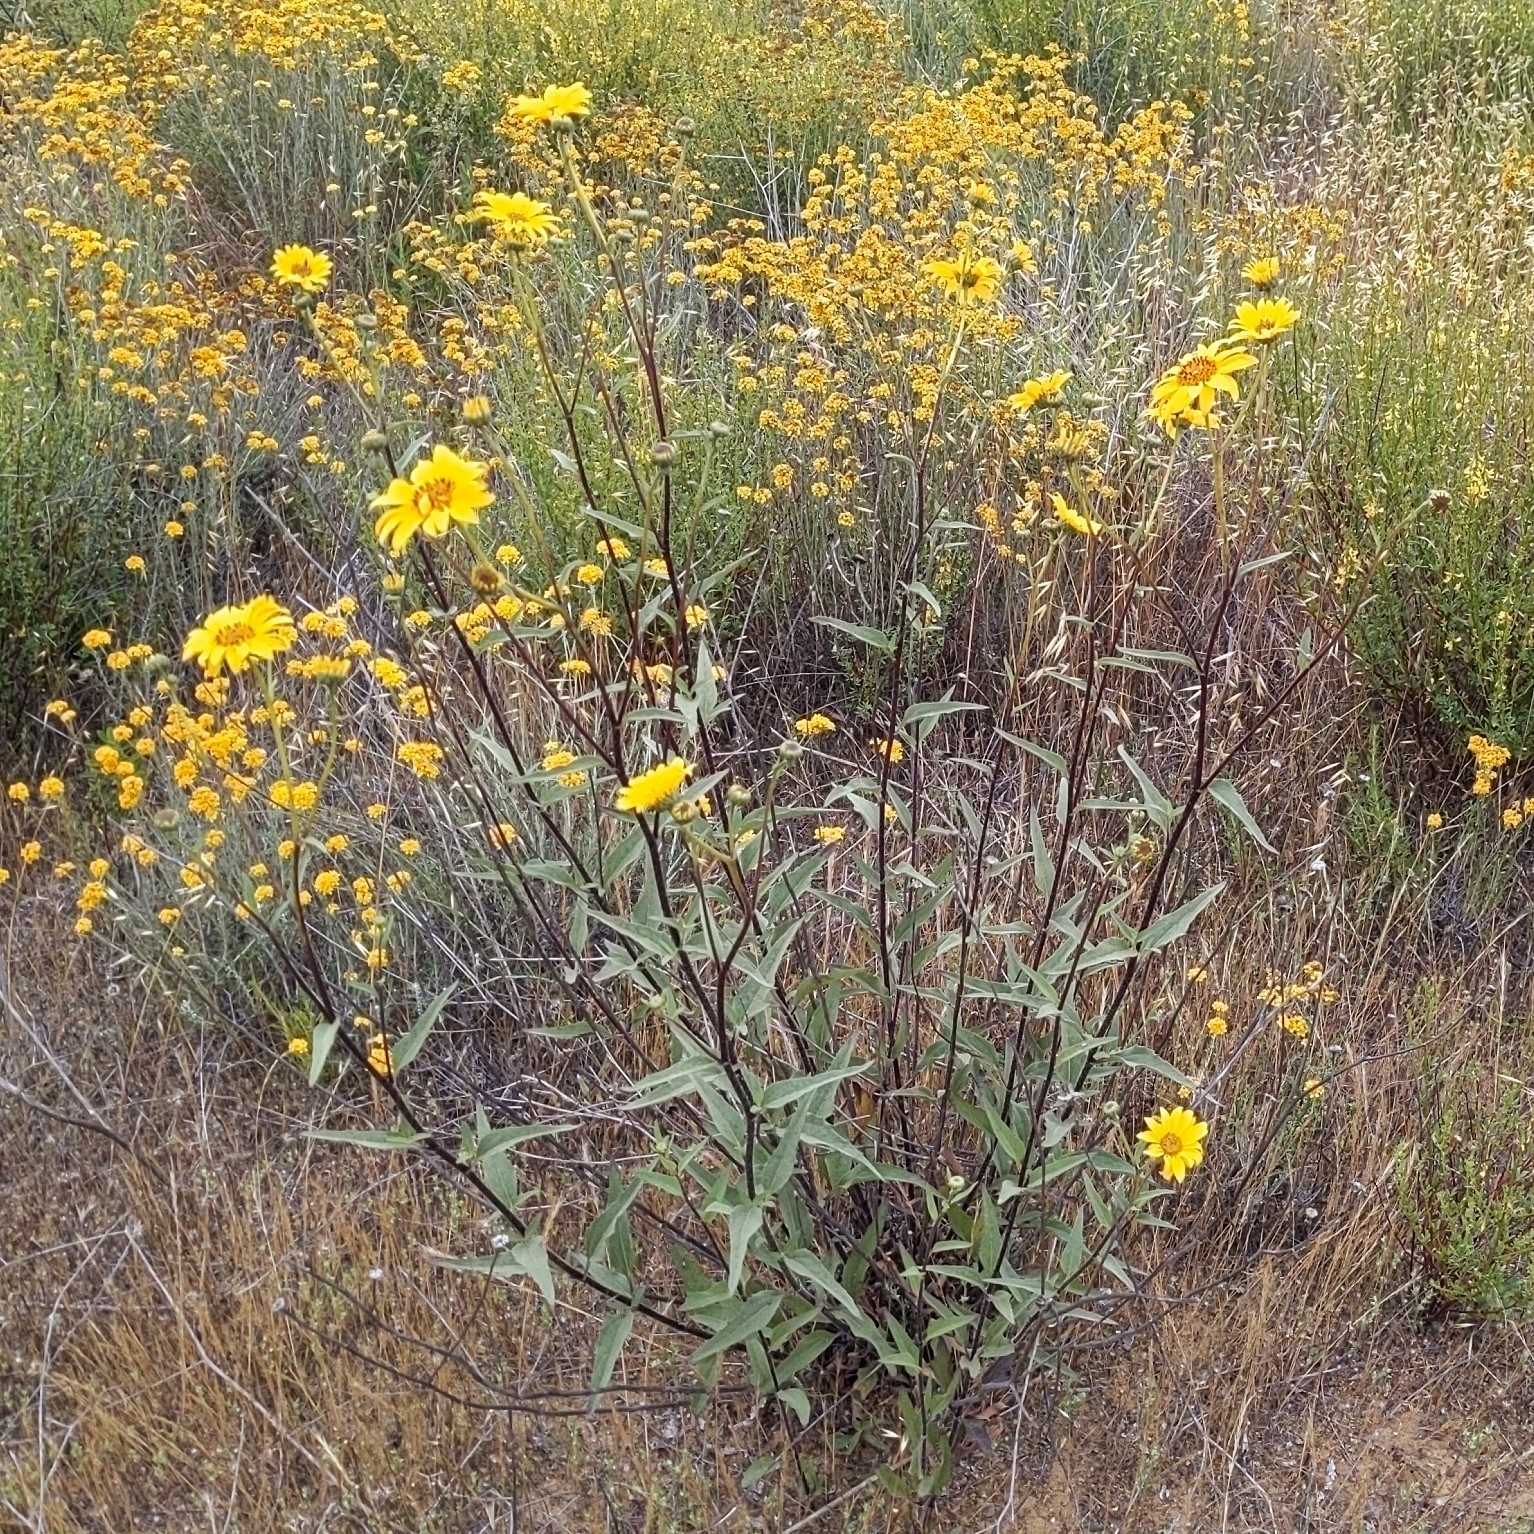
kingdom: Plantae
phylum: Tracheophyta
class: Magnoliopsida
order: Asterales
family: Asteraceae
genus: Helianthus
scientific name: Helianthus gracilentus
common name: Slender sunflower
